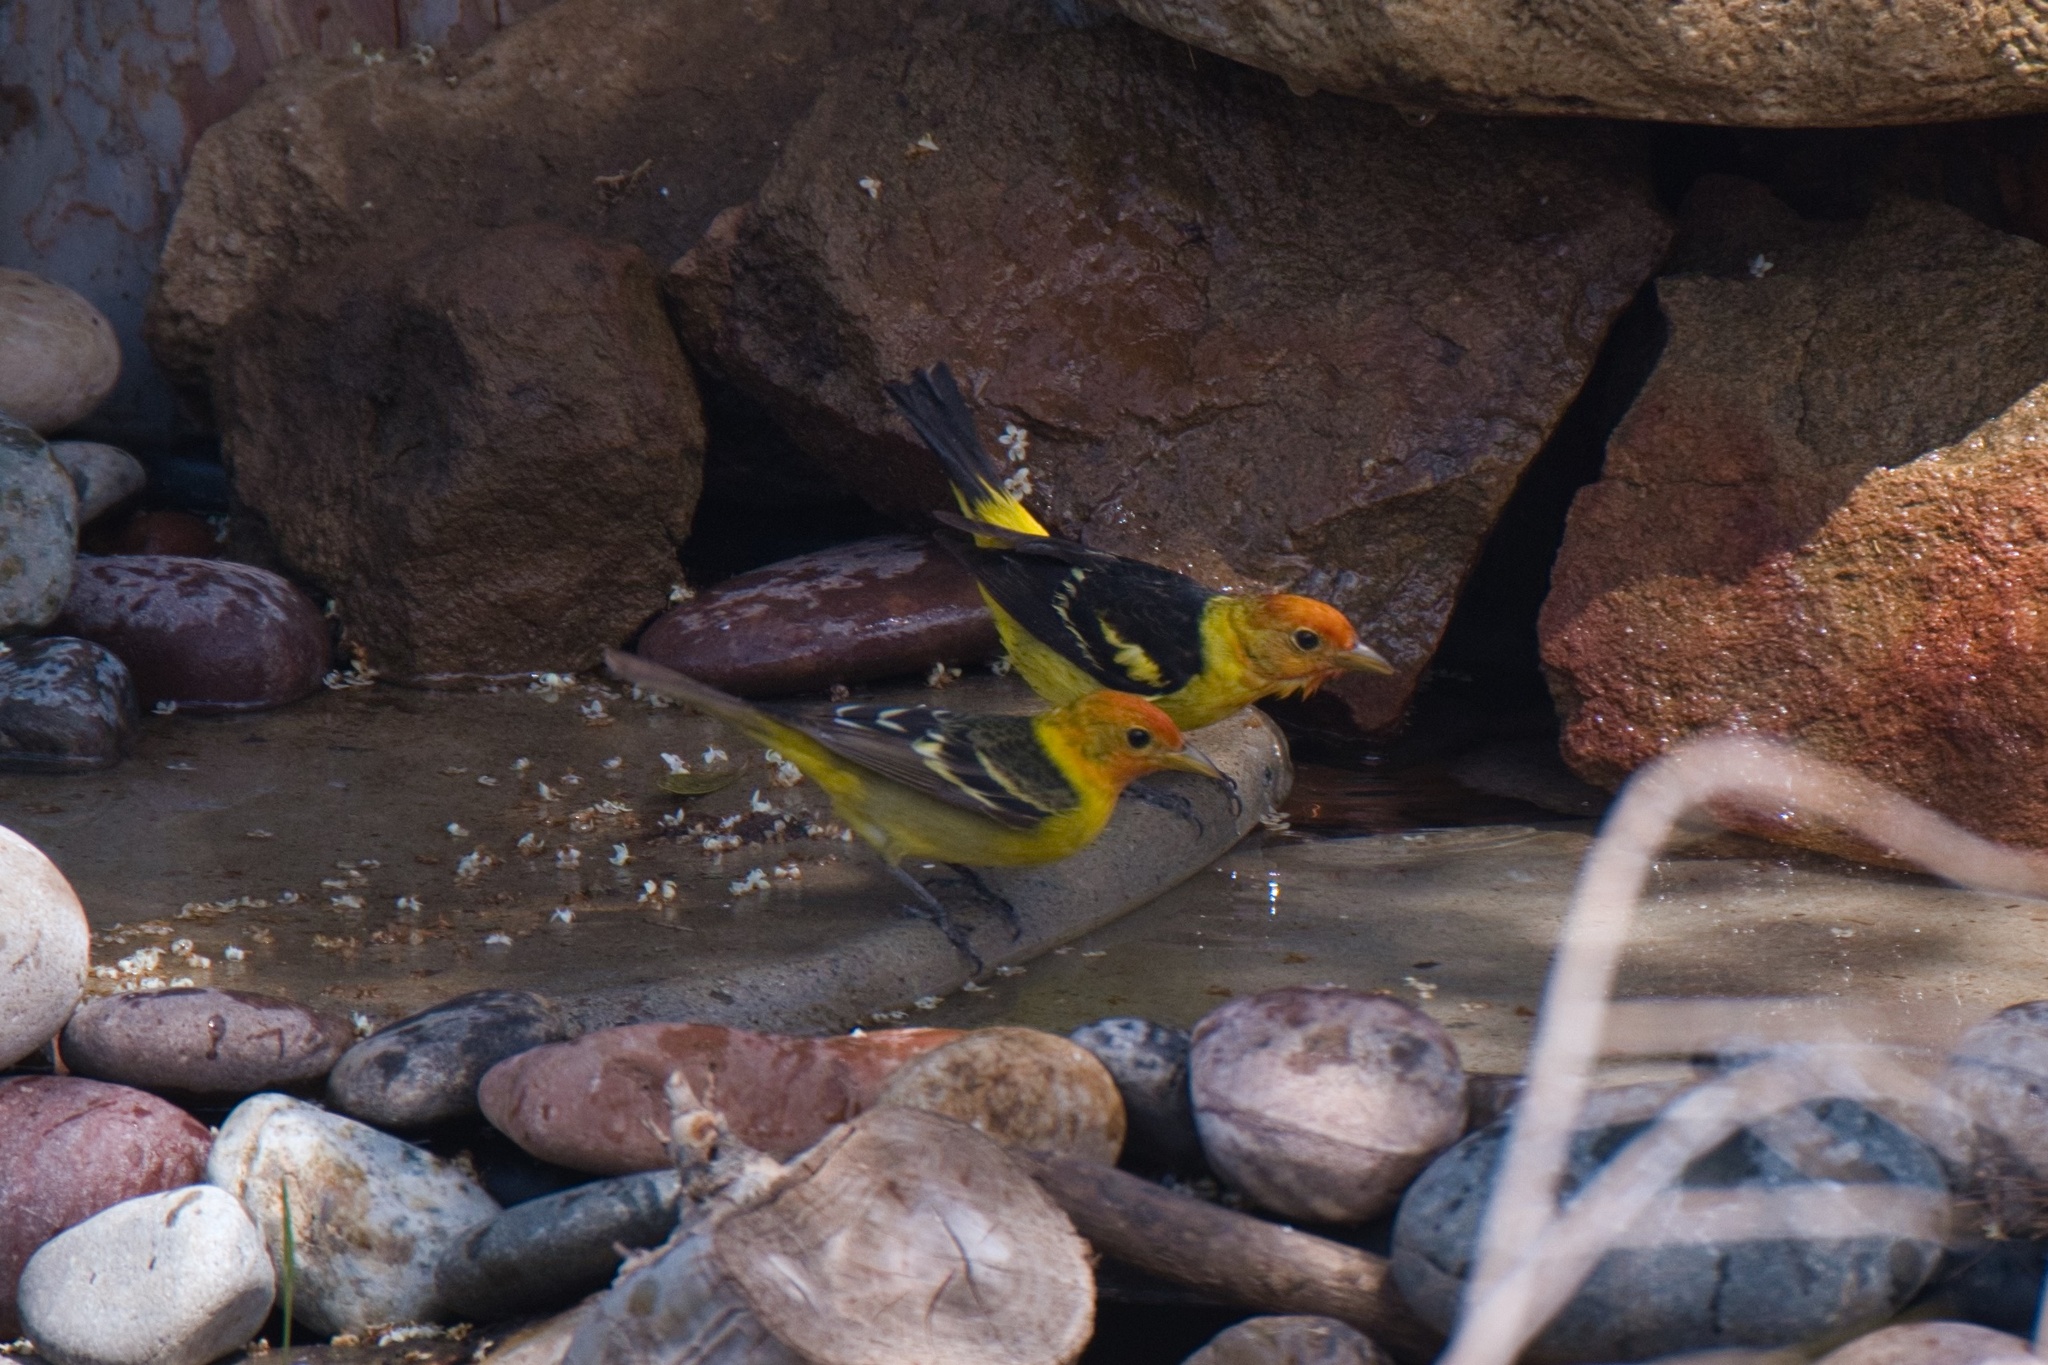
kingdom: Animalia
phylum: Chordata
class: Aves
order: Passeriformes
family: Cardinalidae
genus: Piranga
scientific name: Piranga ludoviciana
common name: Western tanager
